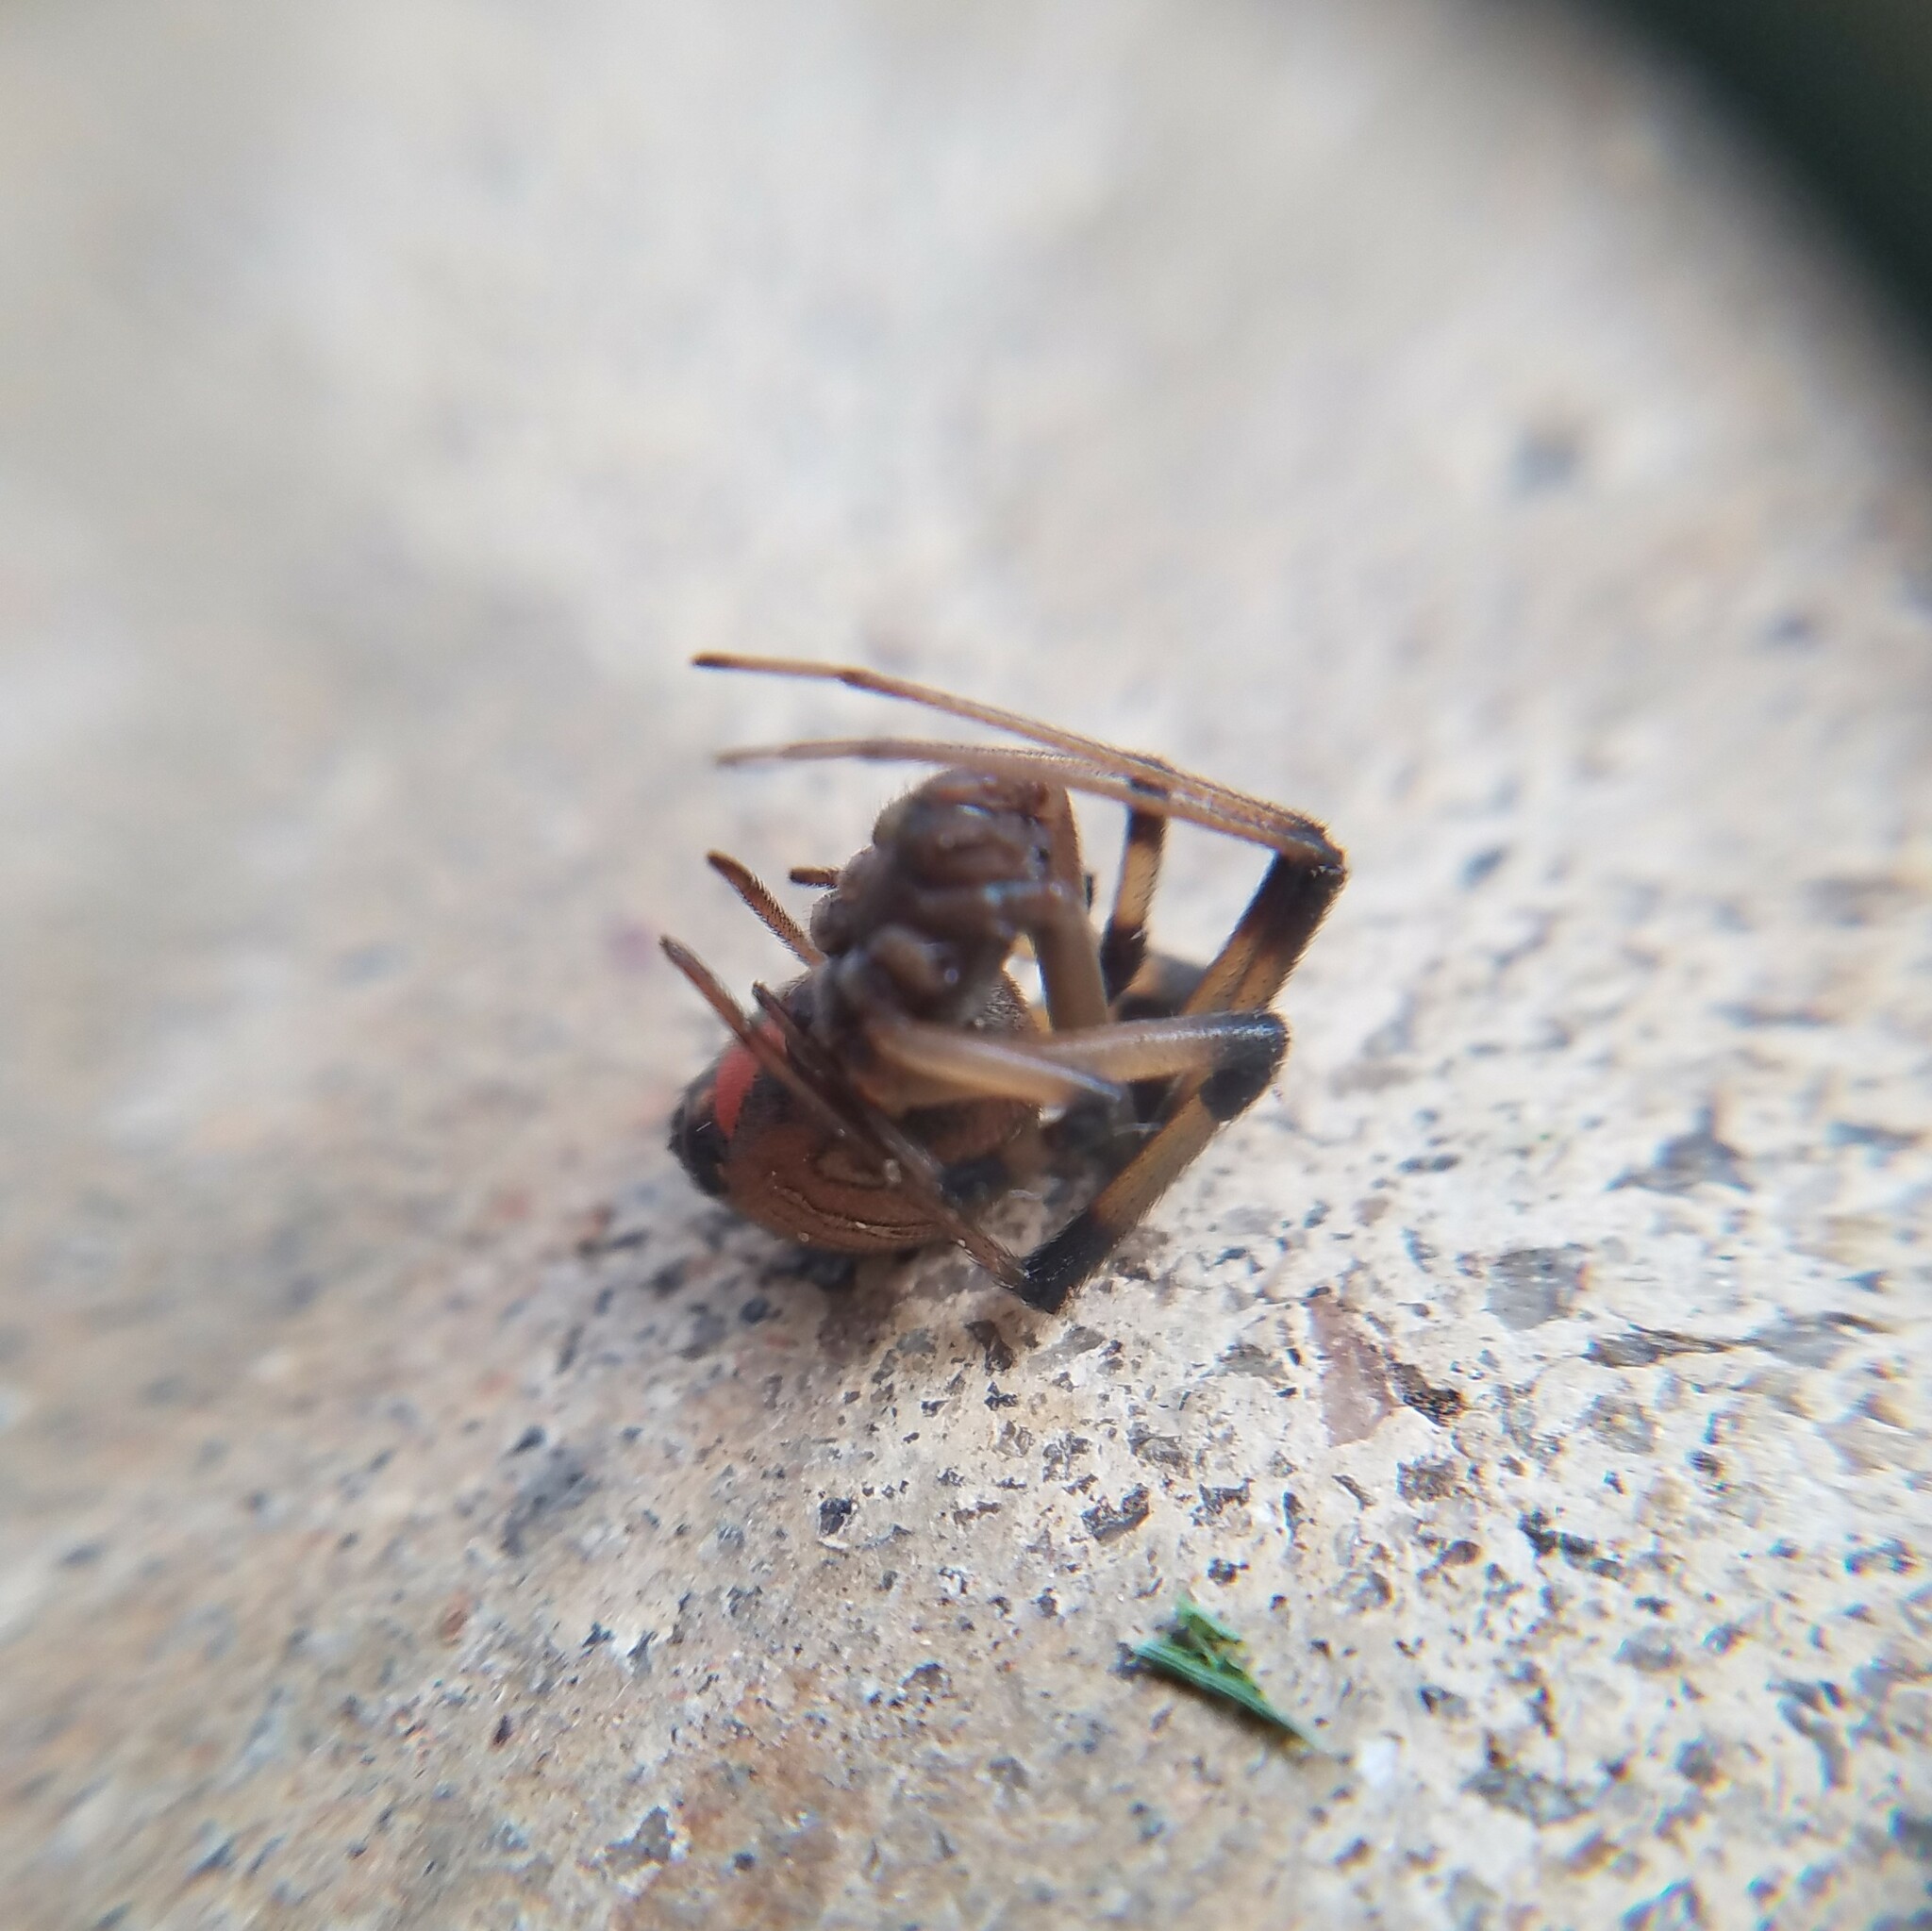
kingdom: Animalia
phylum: Arthropoda
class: Arachnida
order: Araneae
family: Theridiidae
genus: Latrodectus
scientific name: Latrodectus geometricus
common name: Brown widow spider
